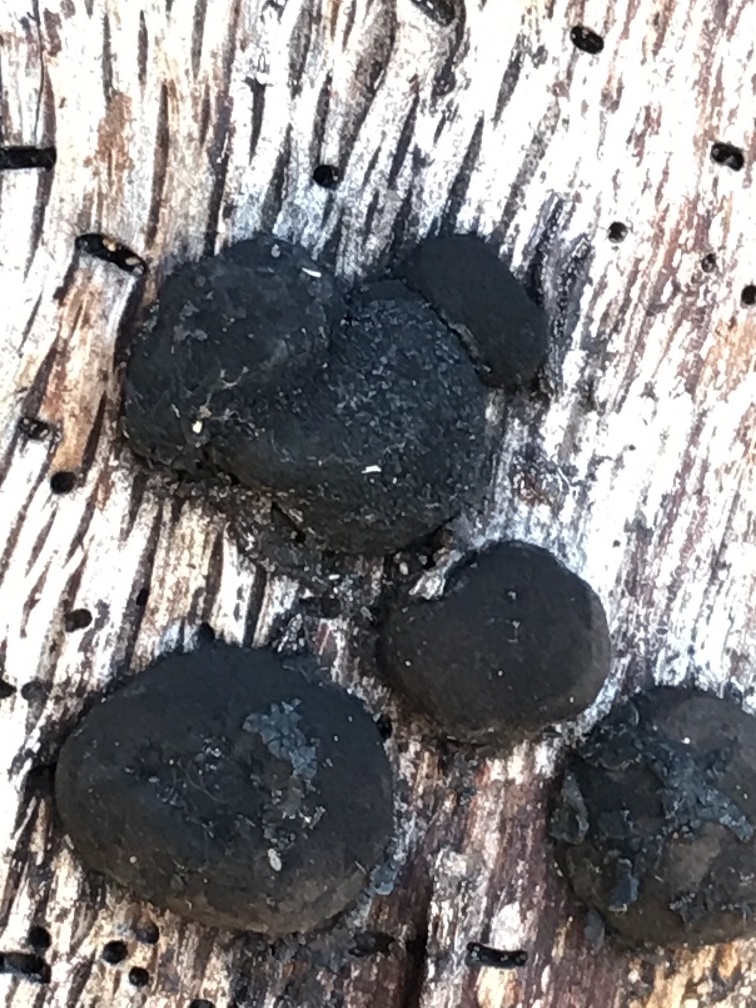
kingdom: Fungi
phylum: Ascomycota
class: Sordariomycetes
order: Xylariales
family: Hypoxylaceae
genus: Annulohypoxylon
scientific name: Annulohypoxylon thouarsianum
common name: Cramp balls
